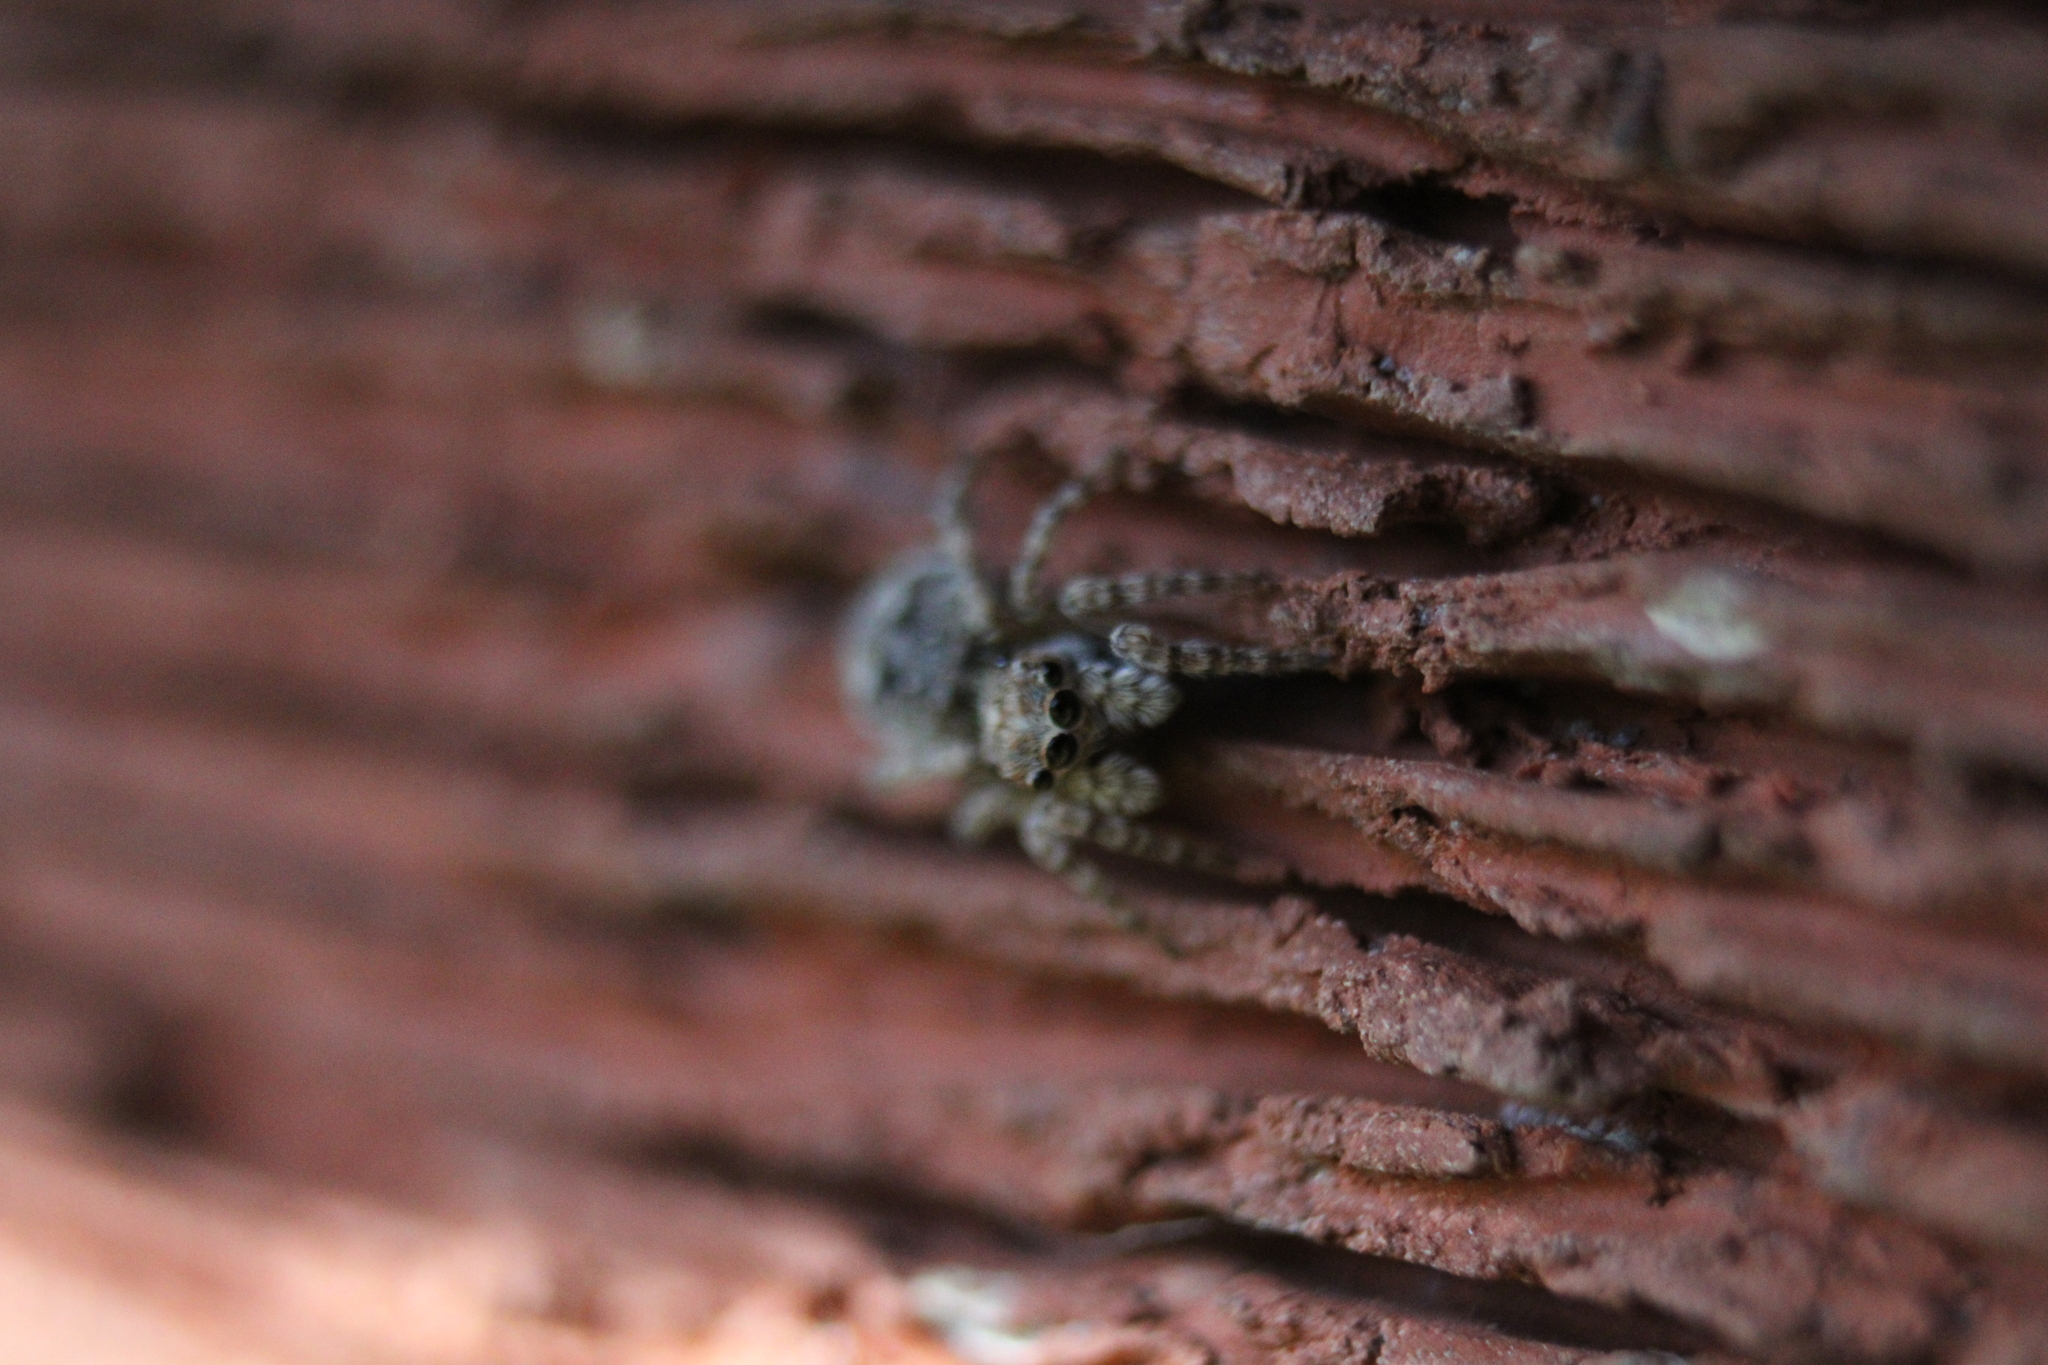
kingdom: Animalia
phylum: Arthropoda
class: Arachnida
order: Araneae
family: Salticidae
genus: Attulus
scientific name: Attulus fasciger
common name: Asiatic wall jumping spider
